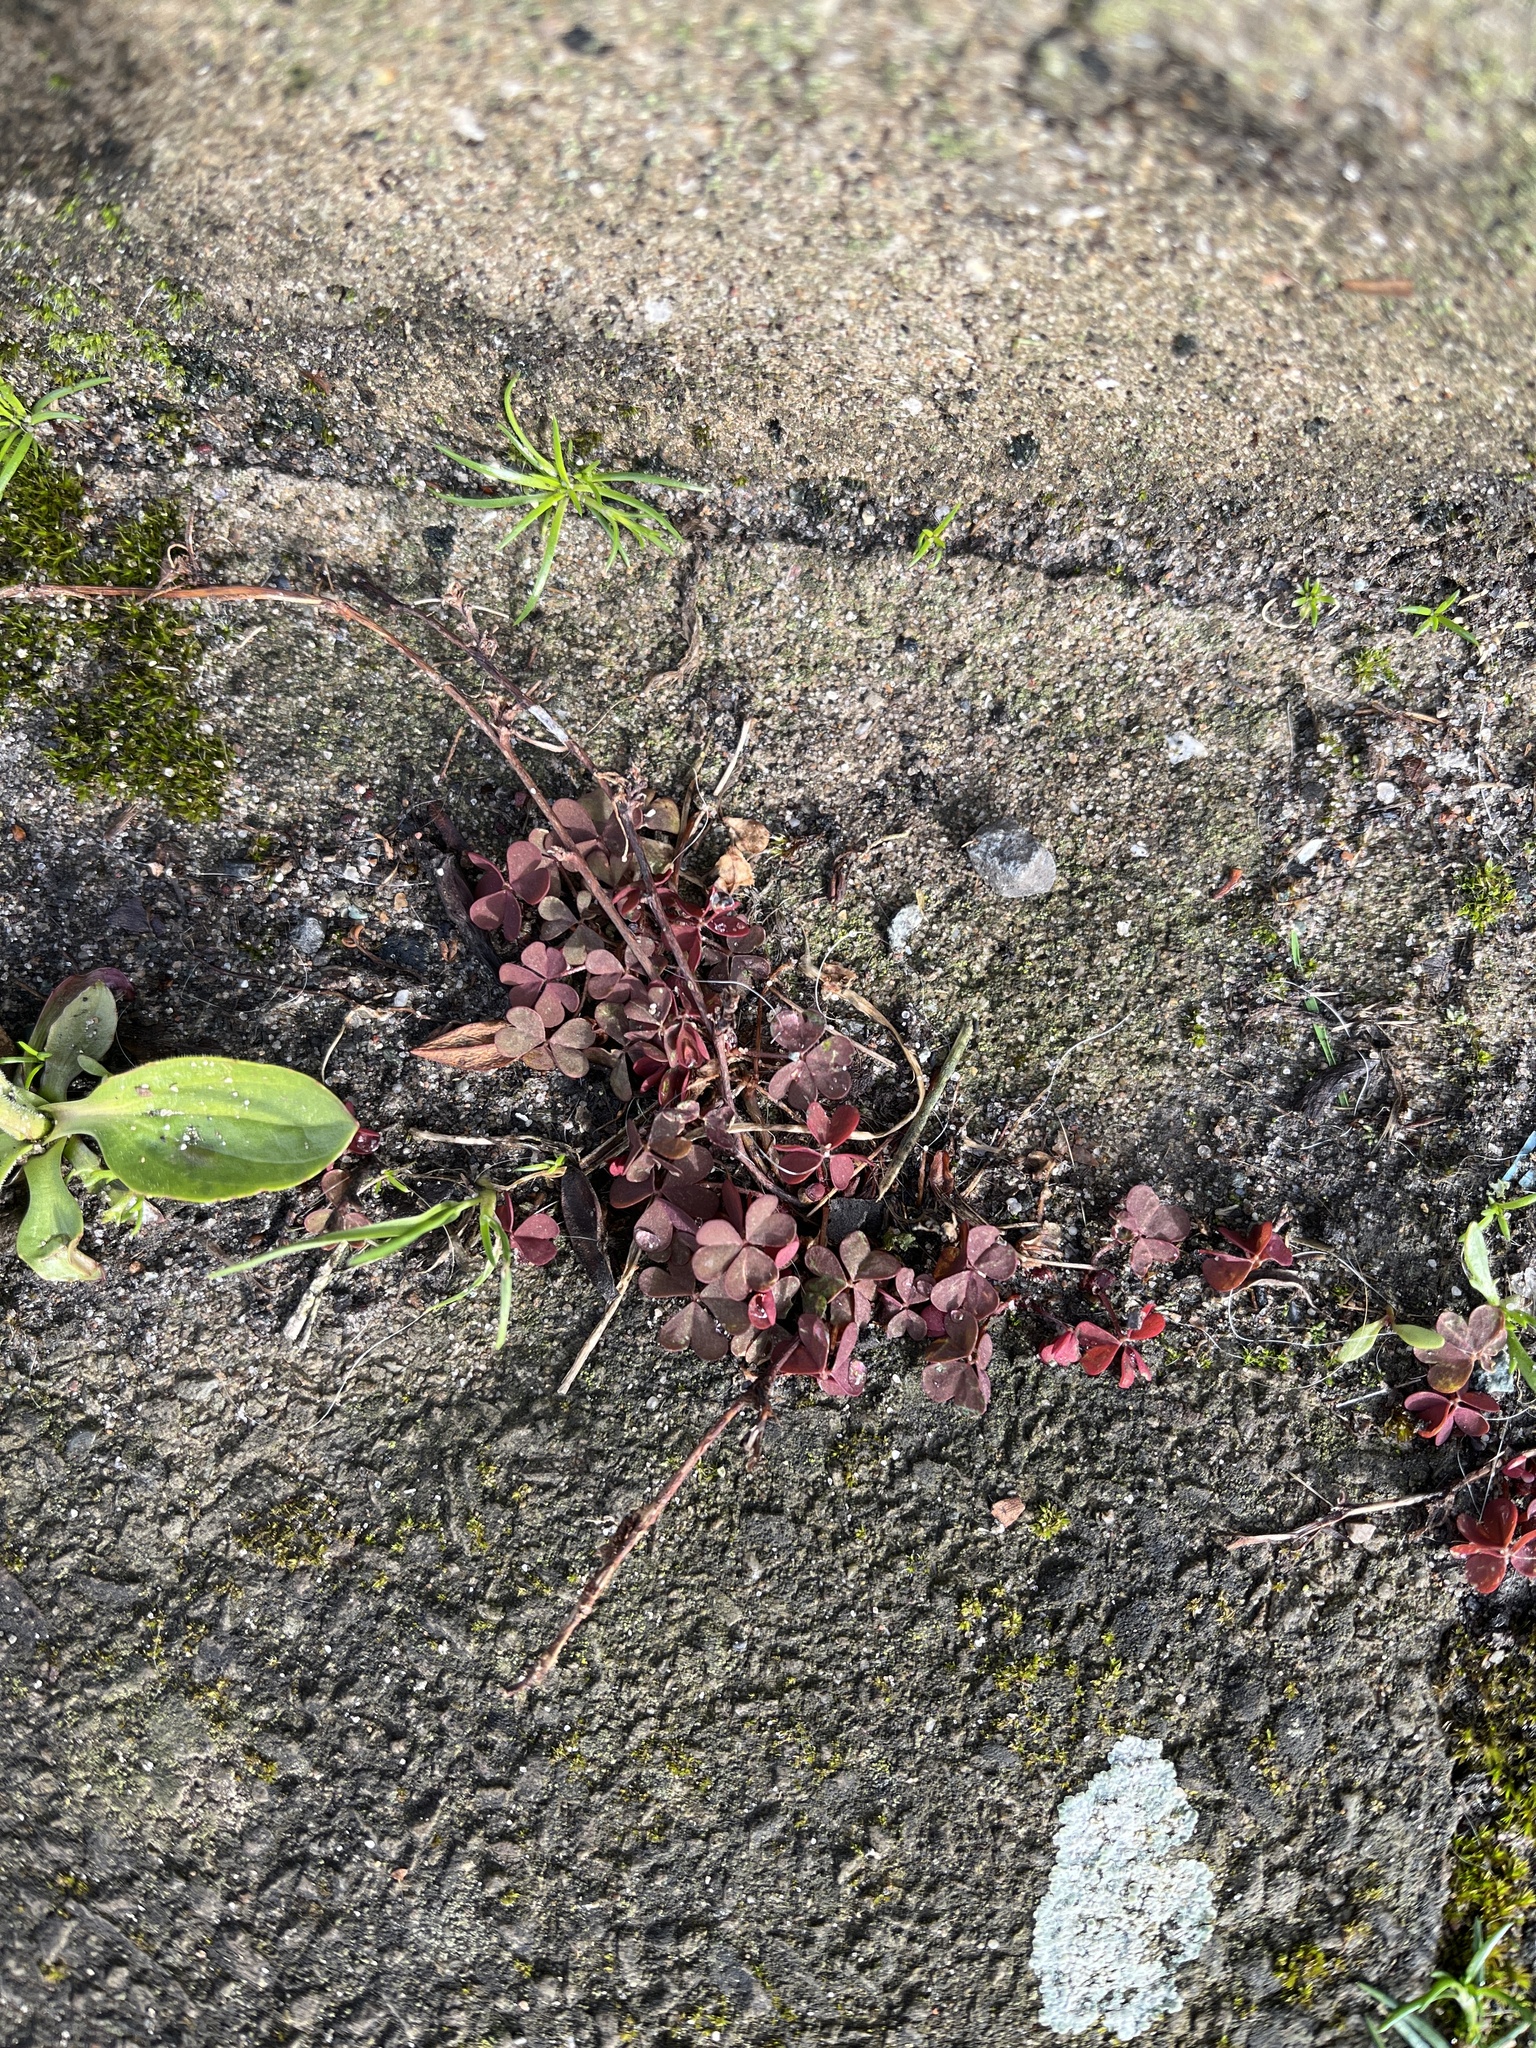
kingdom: Plantae
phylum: Tracheophyta
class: Magnoliopsida
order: Oxalidales
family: Oxalidaceae
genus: Oxalis
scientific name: Oxalis corniculata
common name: Procumbent yellow-sorrel
